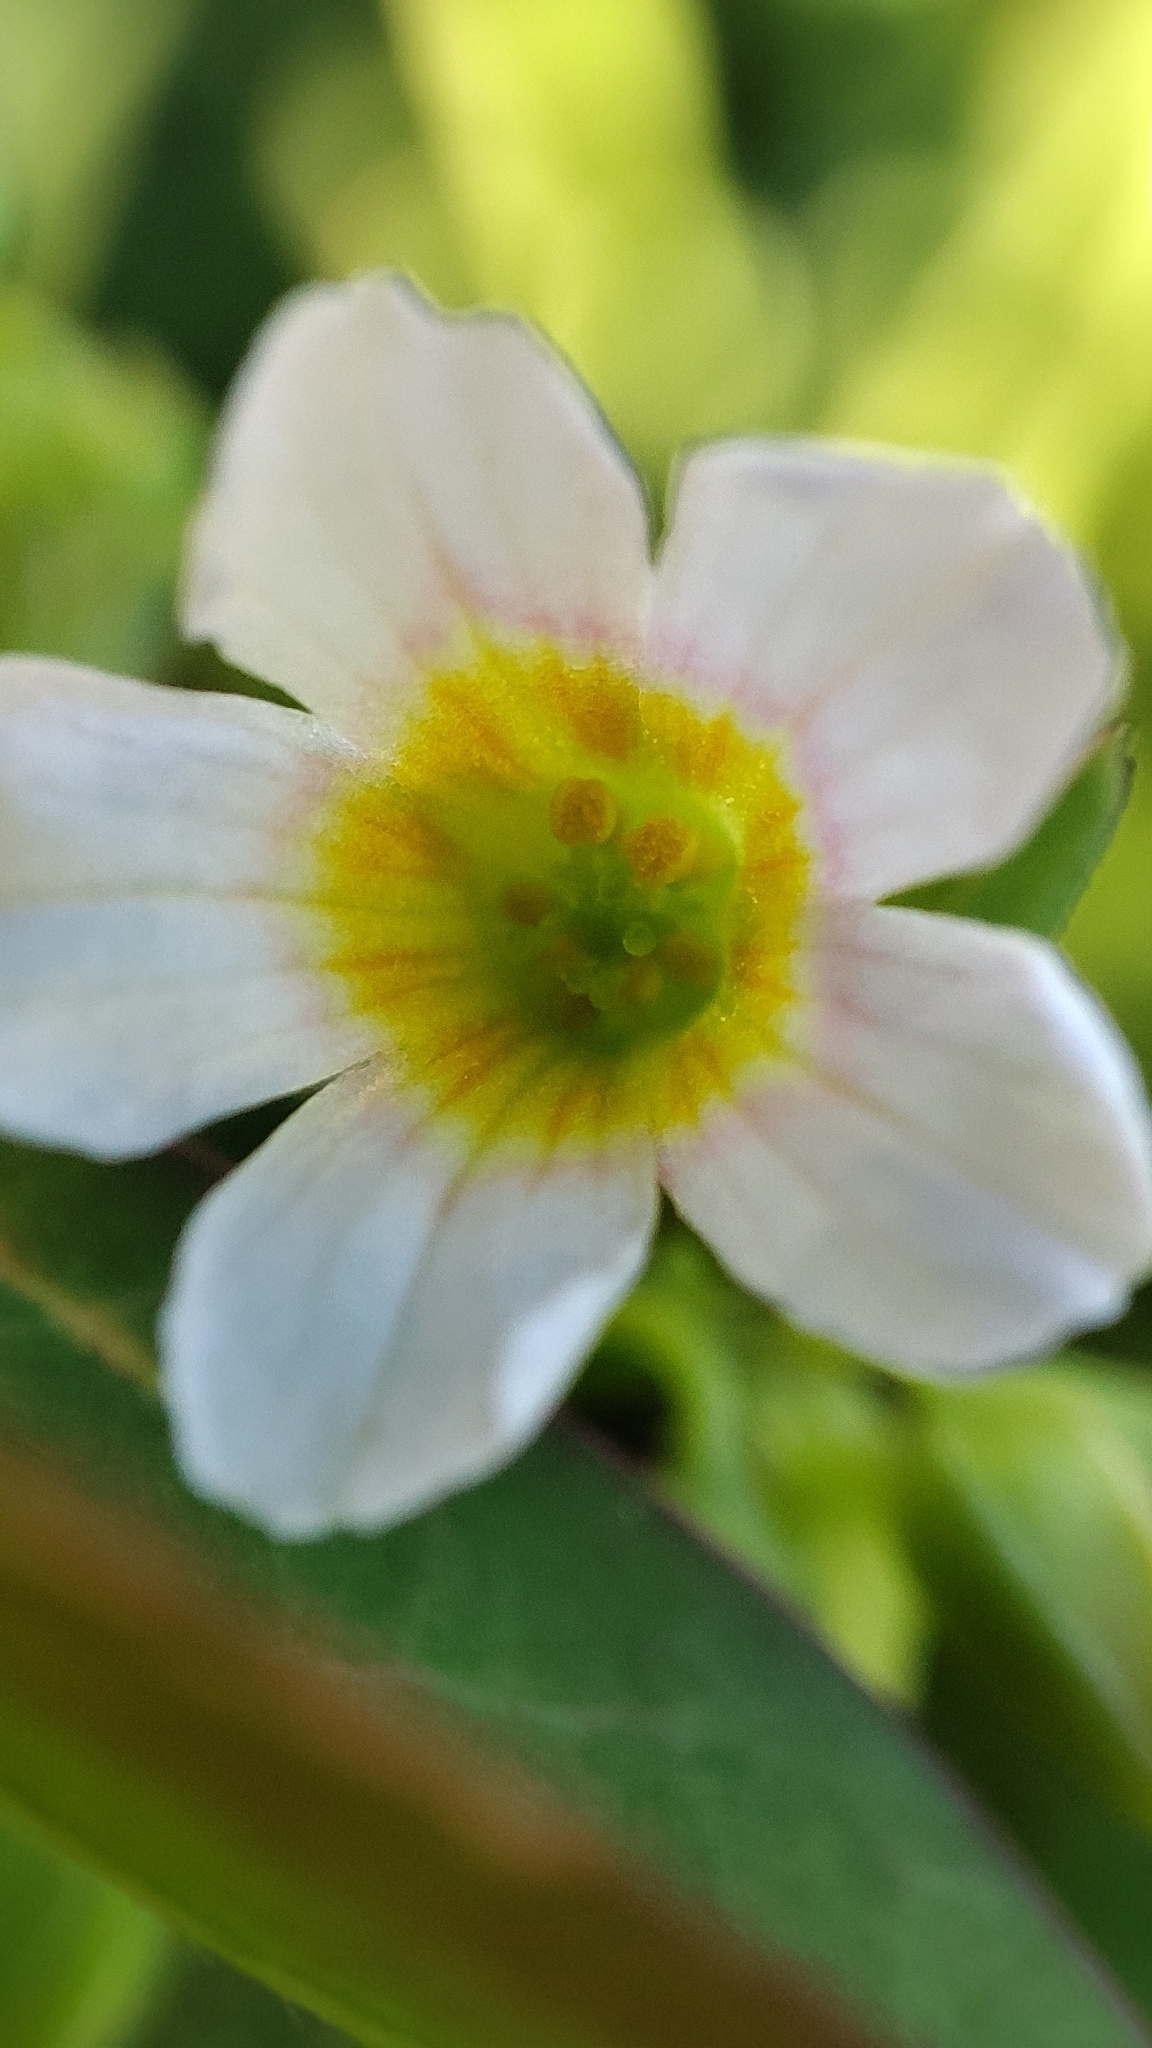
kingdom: Plantae
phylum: Tracheophyta
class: Magnoliopsida
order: Oxalidales
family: Oxalidaceae
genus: Oxalis
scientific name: Oxalis barrelieri
